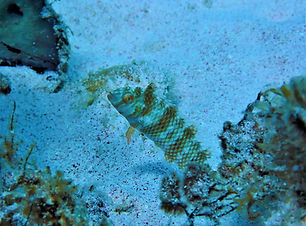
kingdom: Animalia
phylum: Chordata
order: Perciformes
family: Labridae
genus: Xyrichtys
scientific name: Xyrichtys splendens
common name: Green razorfish
